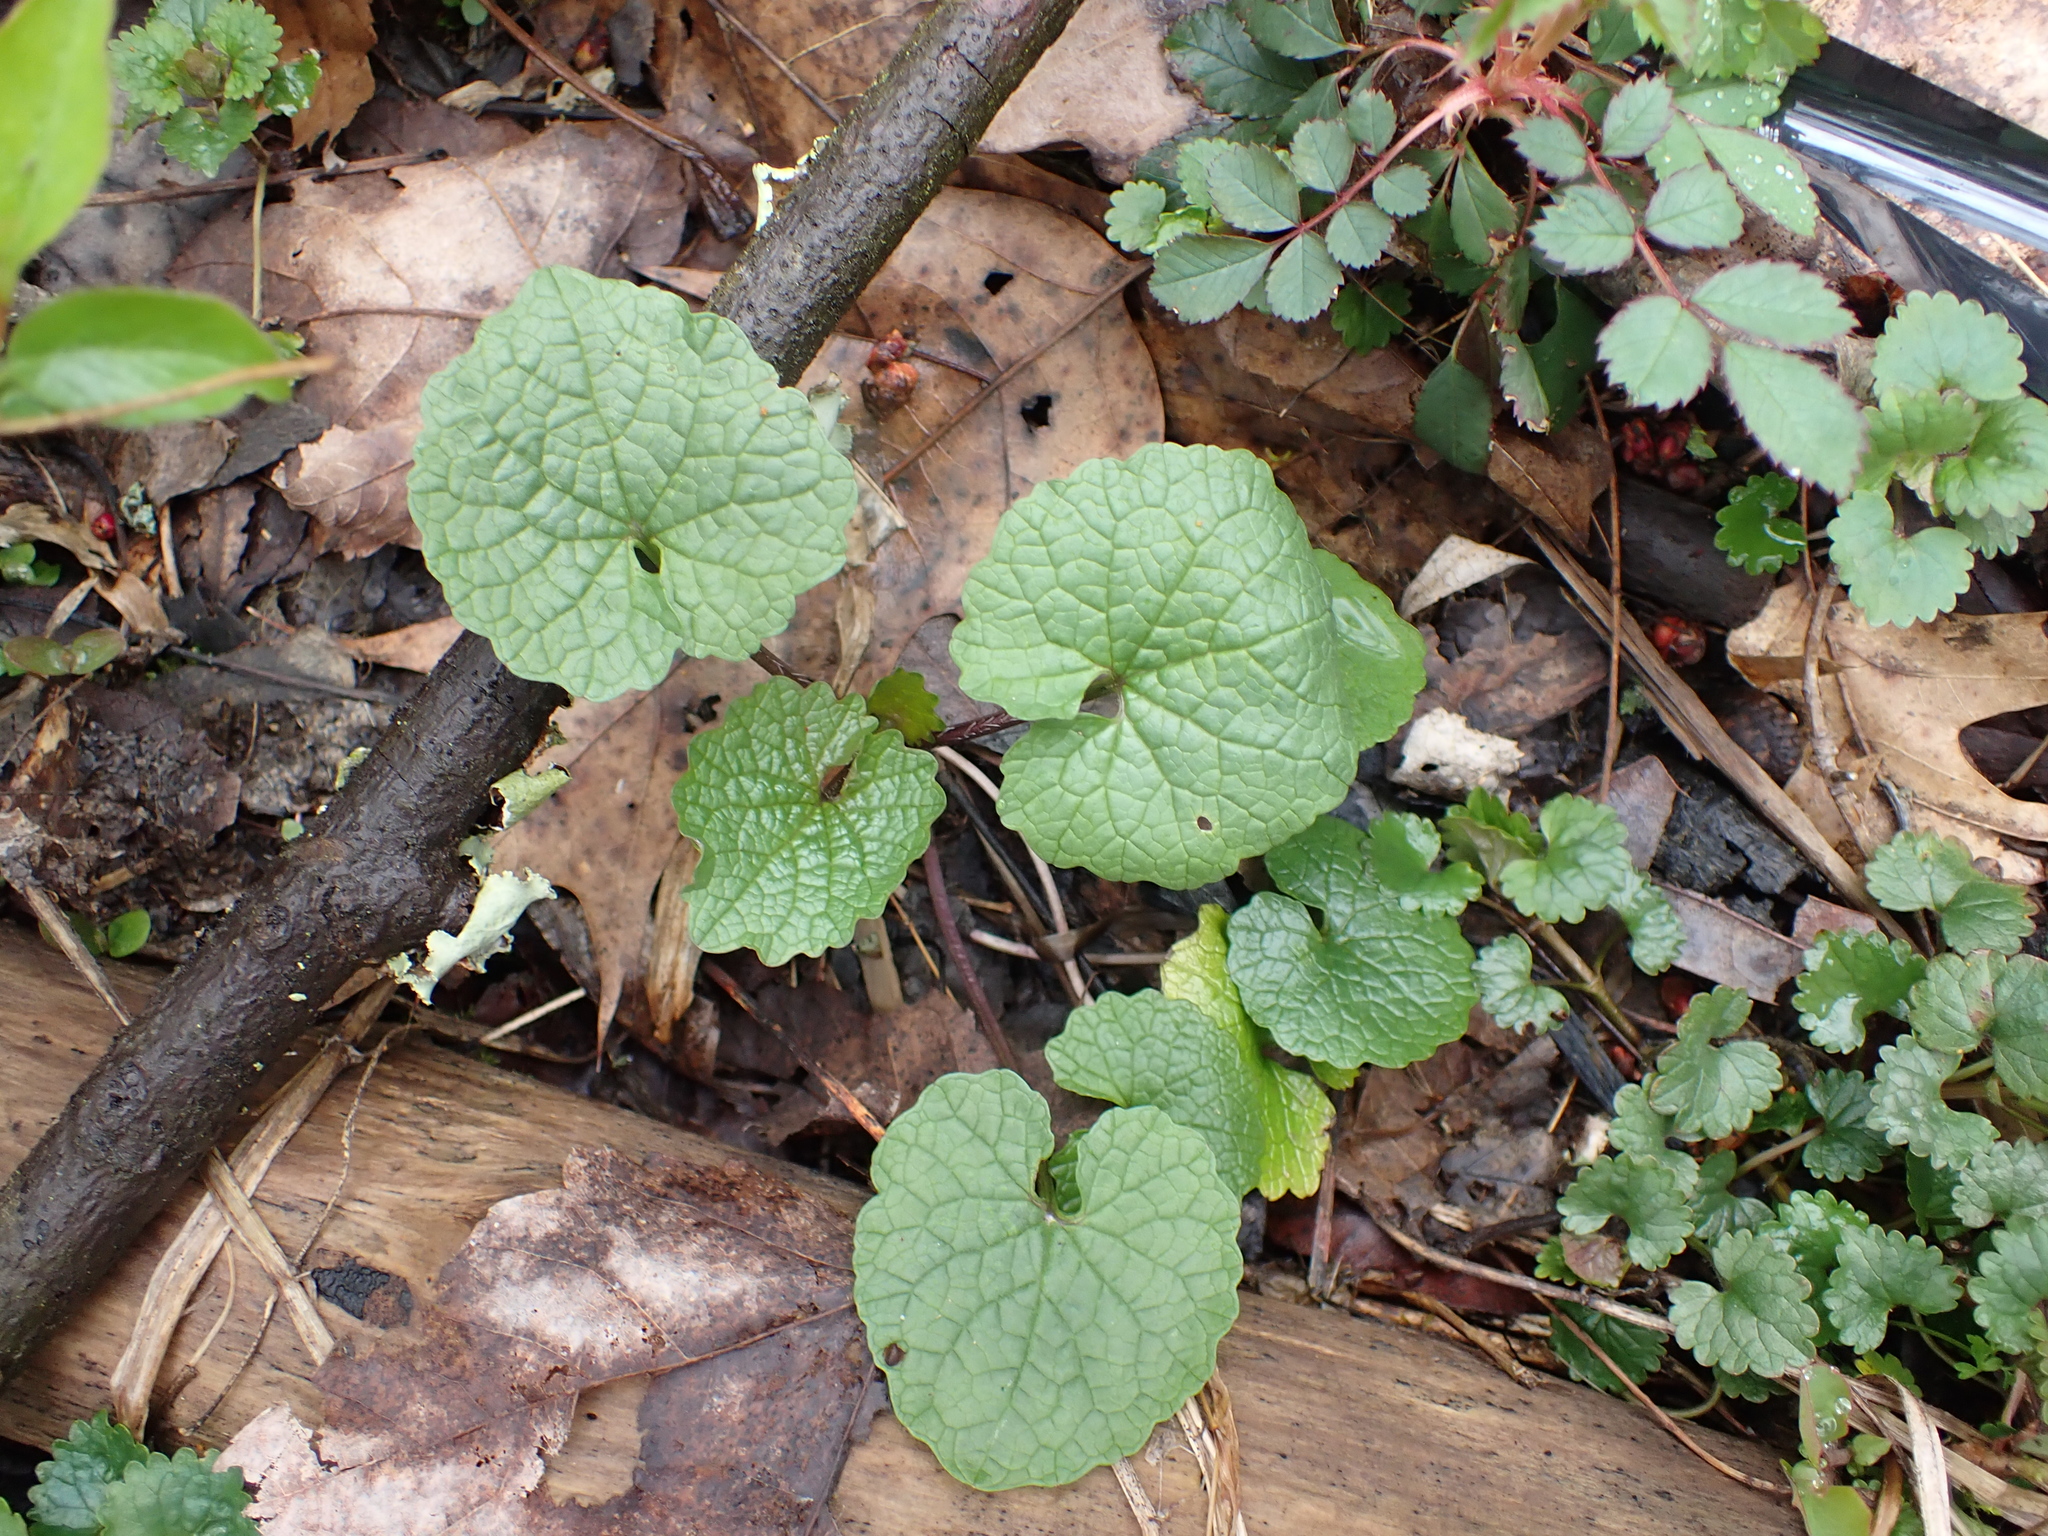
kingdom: Plantae
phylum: Tracheophyta
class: Magnoliopsida
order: Brassicales
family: Brassicaceae
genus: Alliaria
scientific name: Alliaria petiolata
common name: Garlic mustard
